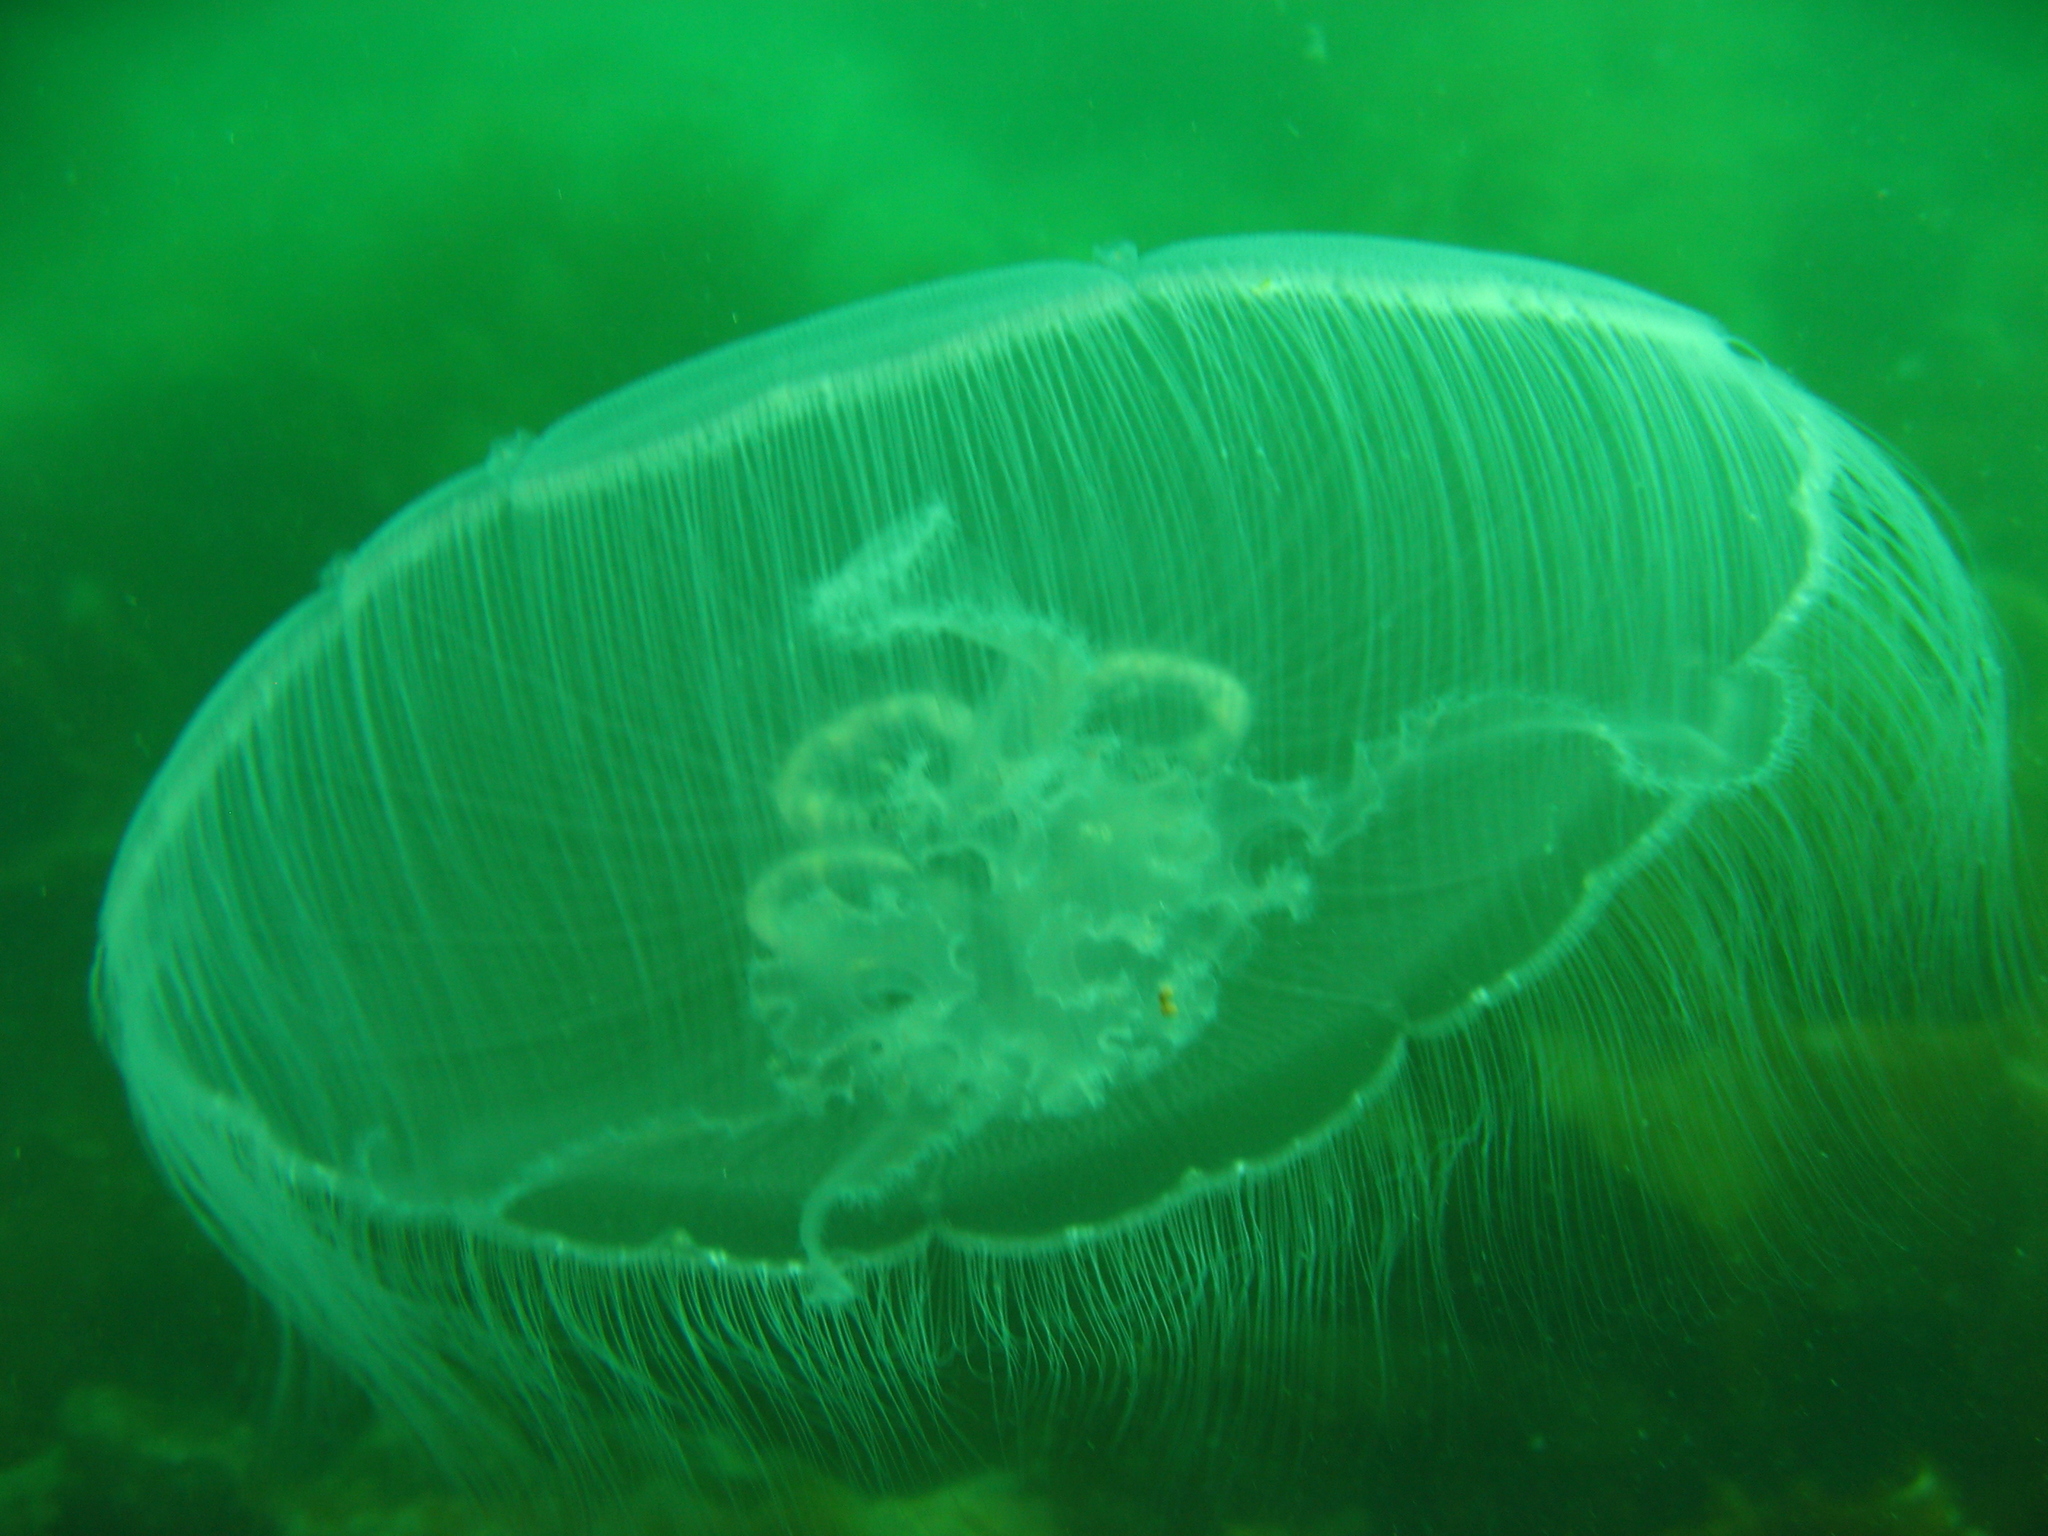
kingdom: Animalia
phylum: Cnidaria
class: Scyphozoa
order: Semaeostomeae
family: Ulmaridae
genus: Aurelia
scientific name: Aurelia labiata
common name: Pacific moon jelly
